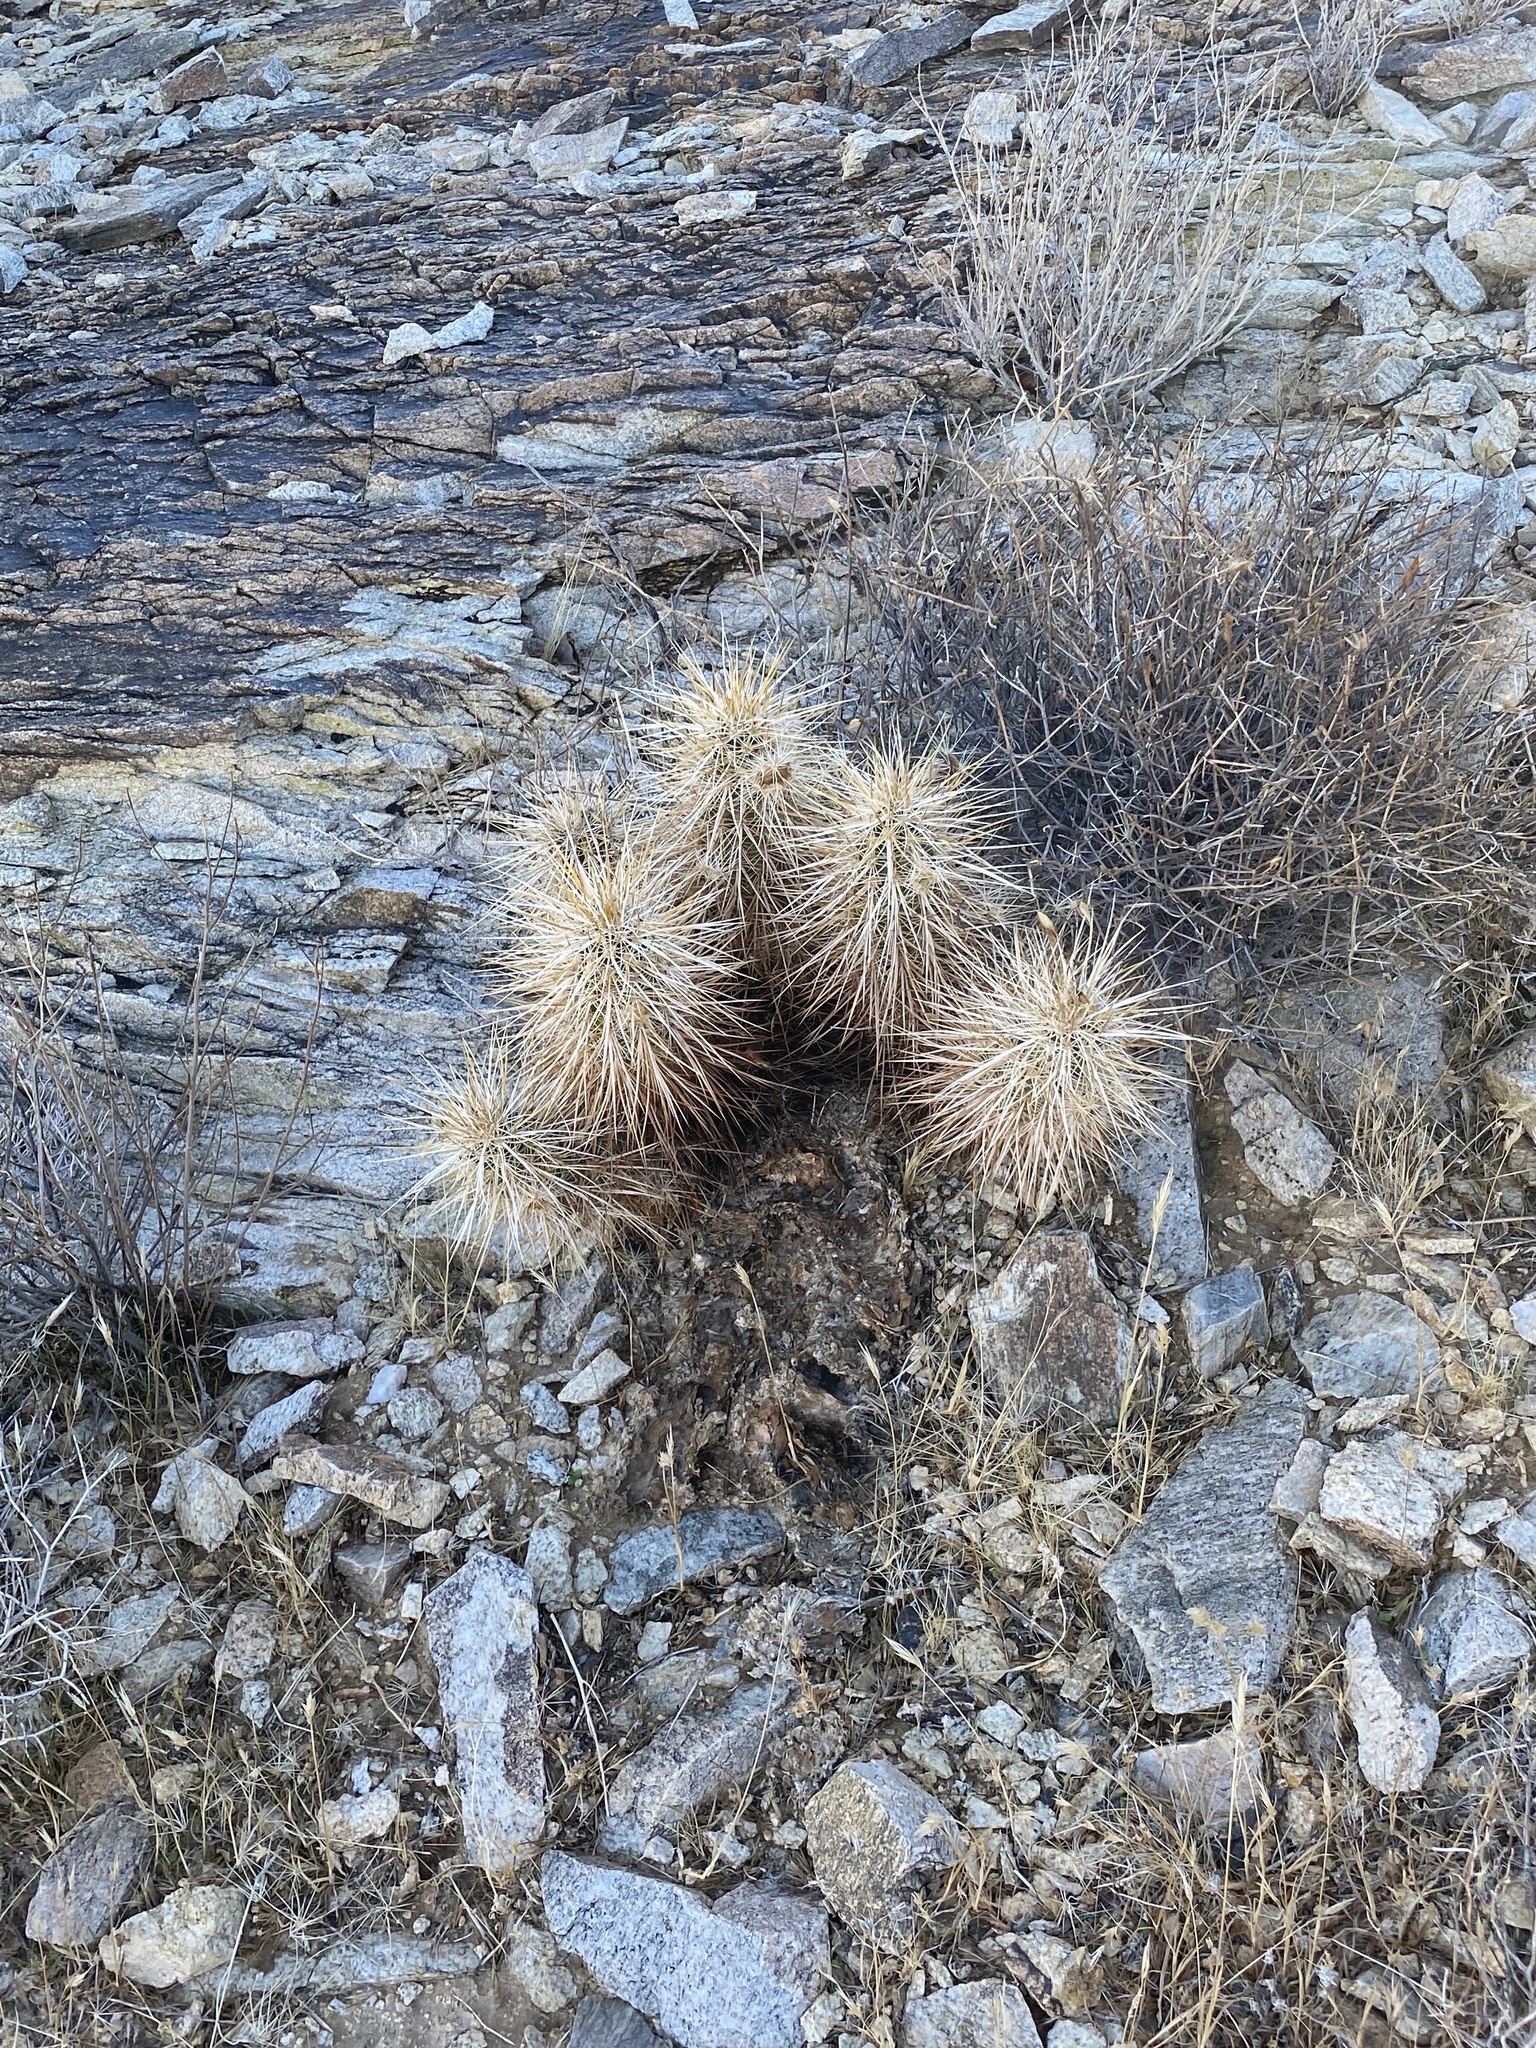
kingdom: Plantae
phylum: Tracheophyta
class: Magnoliopsida
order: Caryophyllales
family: Cactaceae
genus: Echinocereus
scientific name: Echinocereus engelmannii
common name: Engelmann's hedgehog cactus
